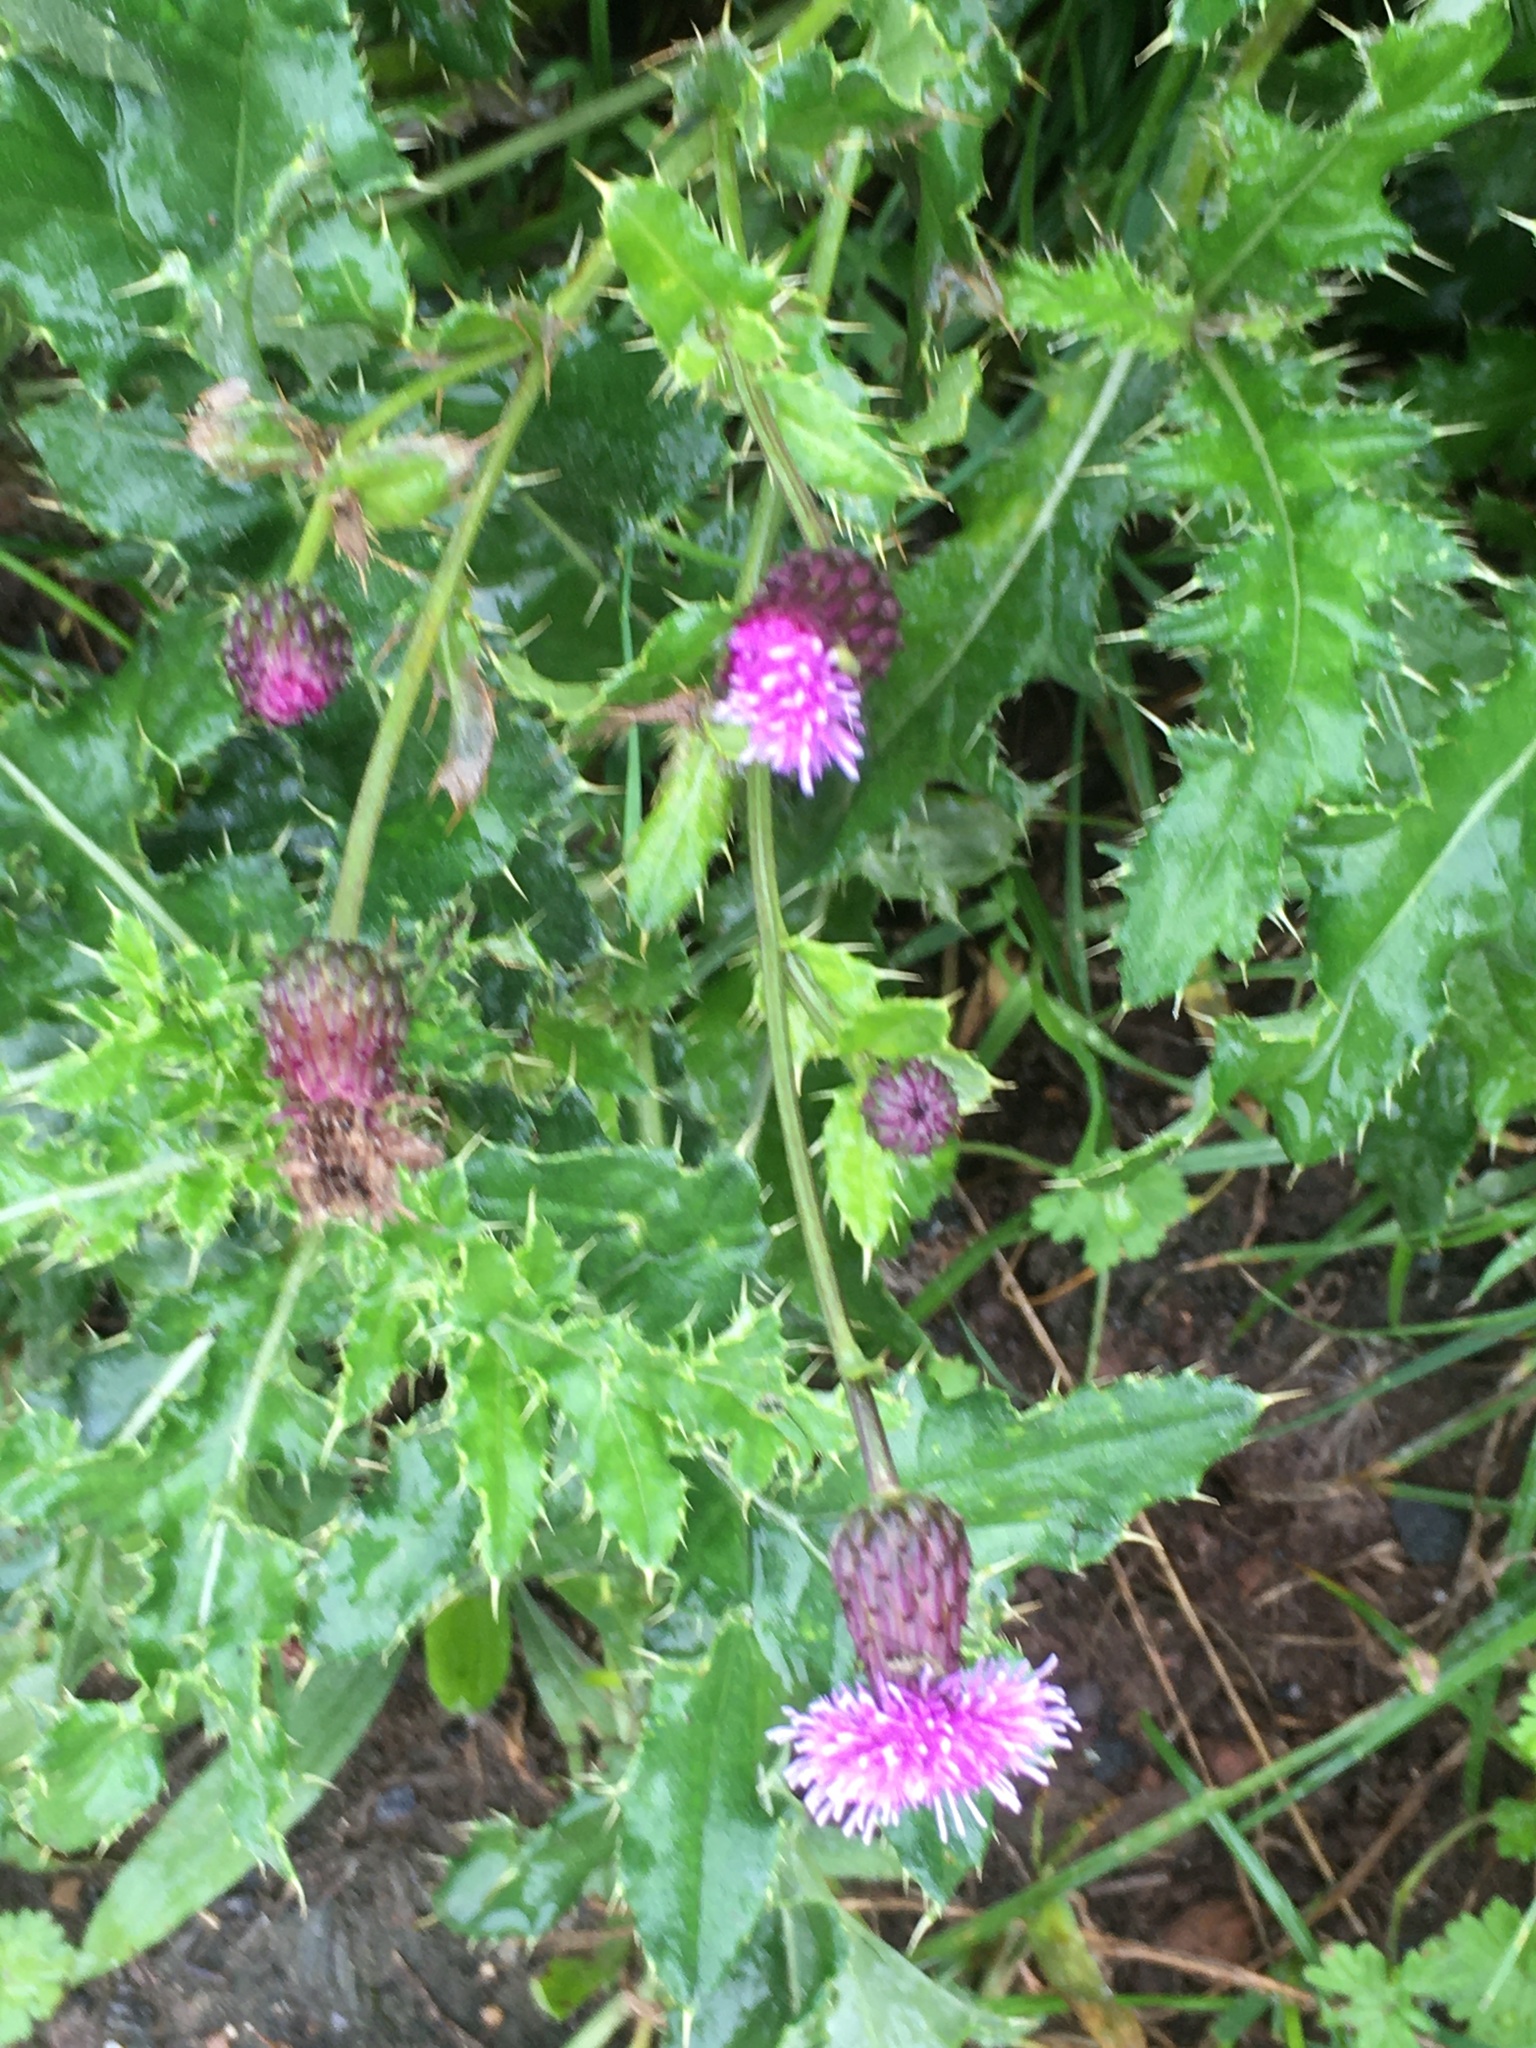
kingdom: Plantae
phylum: Tracheophyta
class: Magnoliopsida
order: Asterales
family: Asteraceae
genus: Cirsium
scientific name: Cirsium arvense
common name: Creeping thistle
